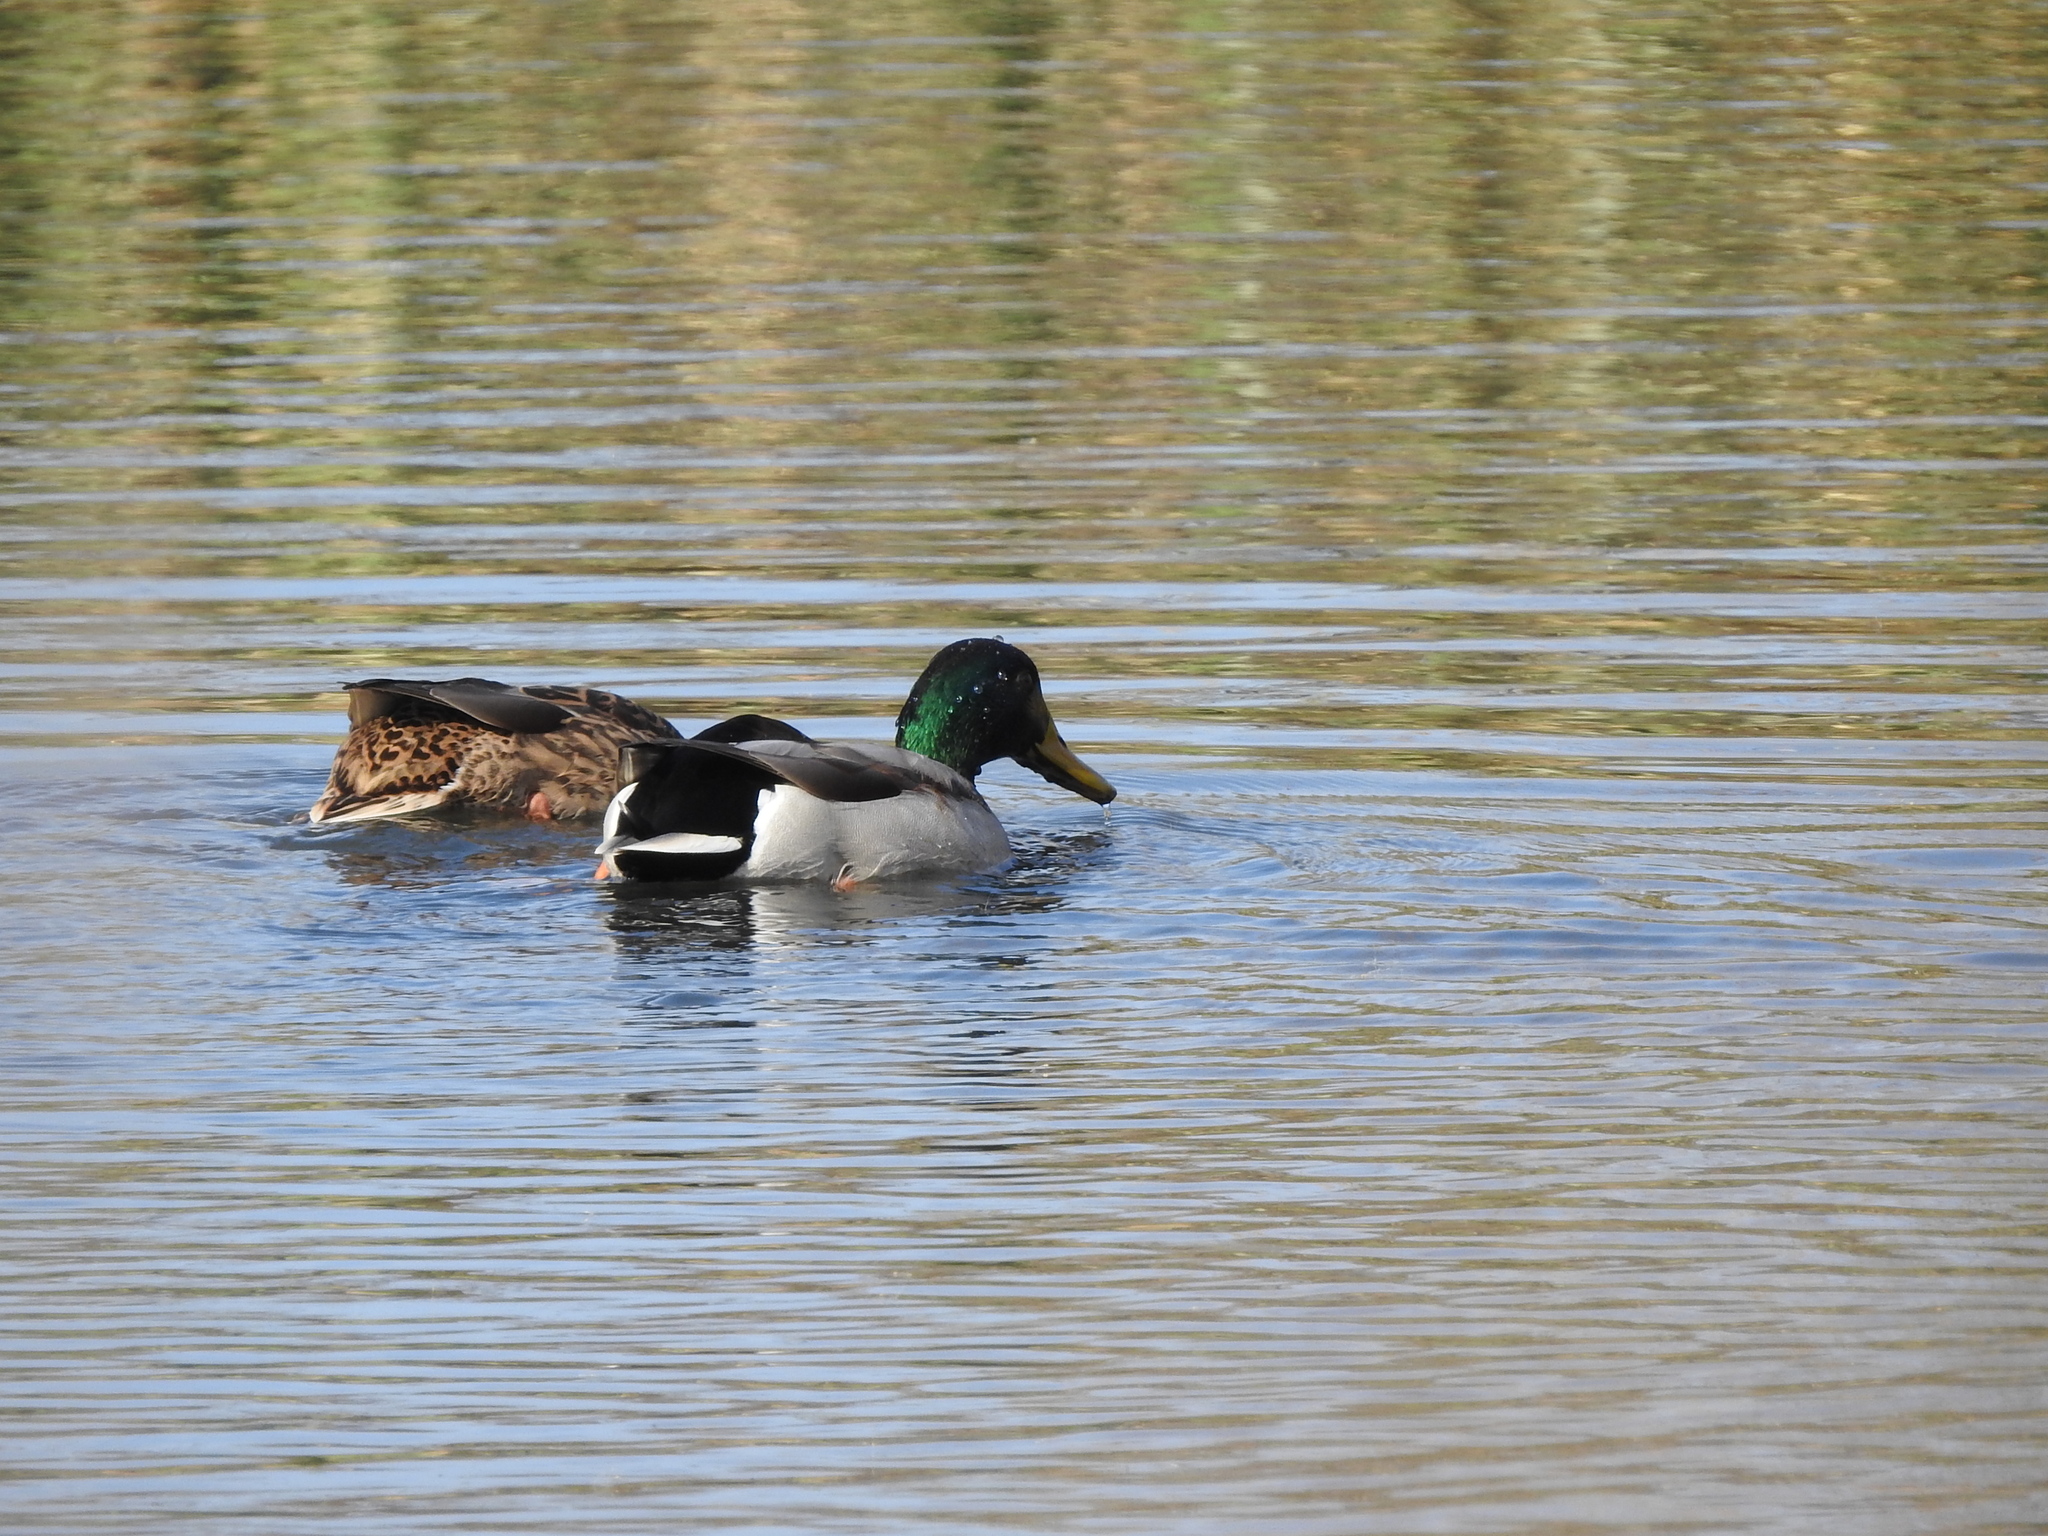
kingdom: Animalia
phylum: Chordata
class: Aves
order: Anseriformes
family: Anatidae
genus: Anas
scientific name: Anas platyrhynchos
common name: Mallard
